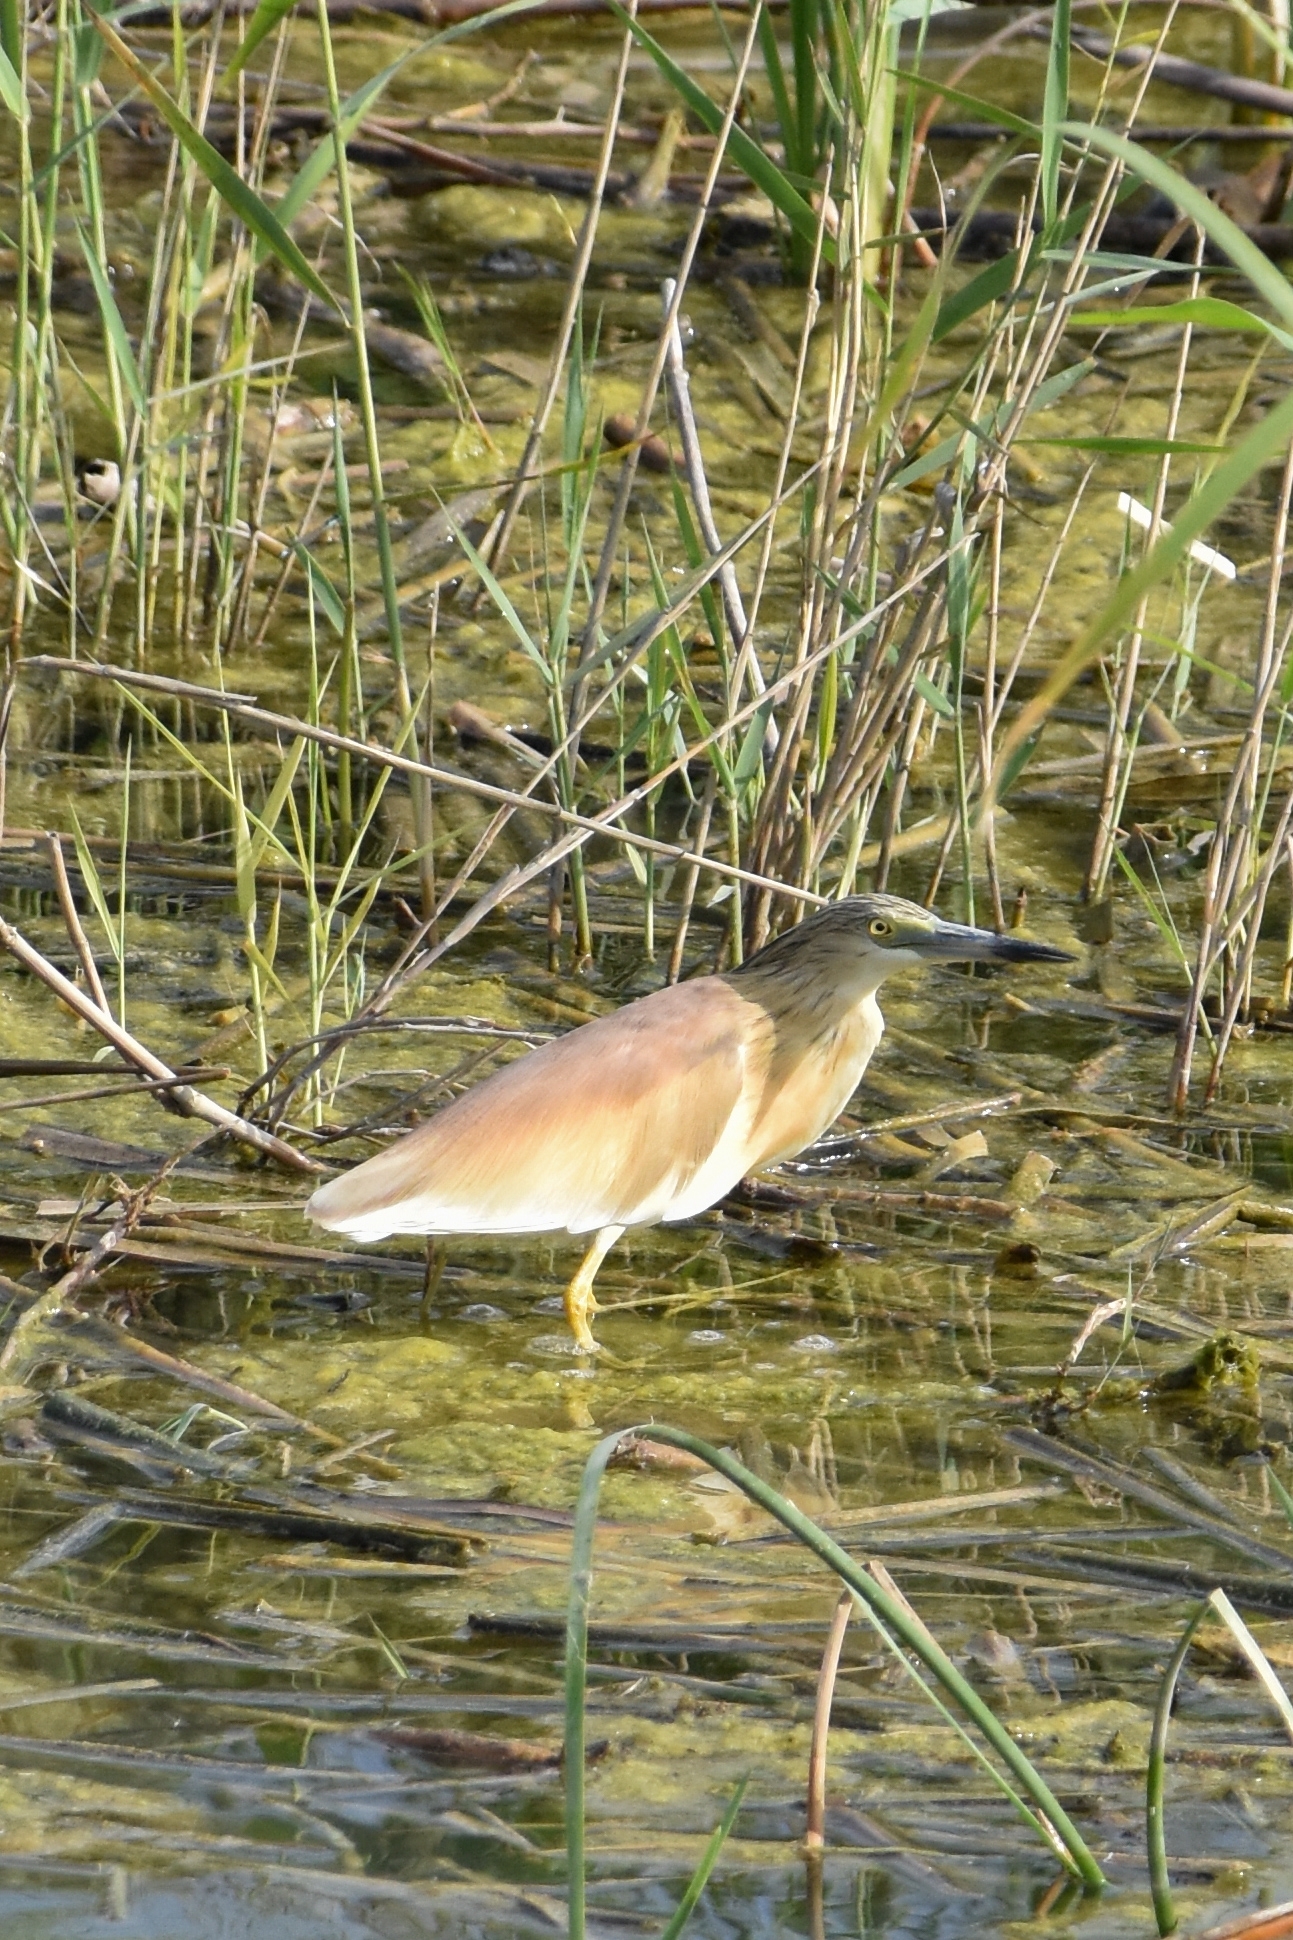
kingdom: Animalia
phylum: Chordata
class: Aves
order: Pelecaniformes
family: Ardeidae
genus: Ardeola
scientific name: Ardeola ralloides
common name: Squacco heron
